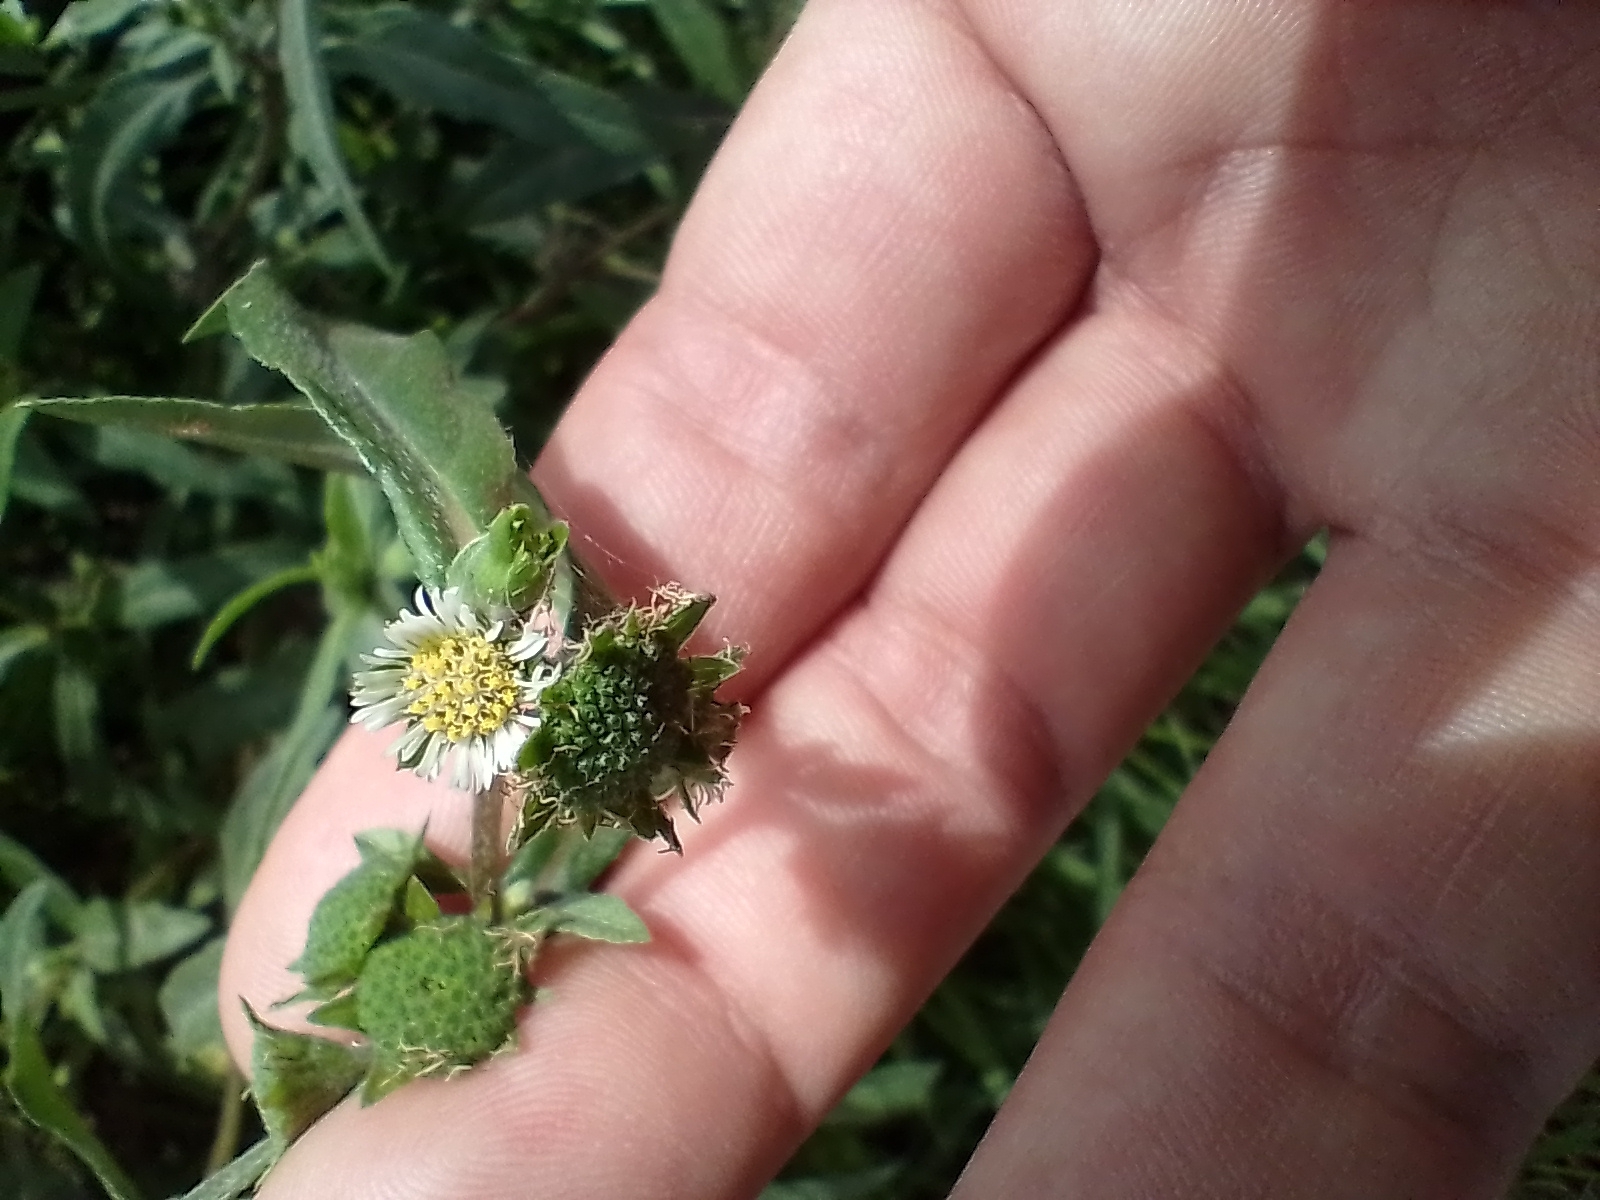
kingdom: Plantae
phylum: Tracheophyta
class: Magnoliopsida
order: Asterales
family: Asteraceae
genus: Eclipta
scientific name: Eclipta prostrata
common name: False daisy
